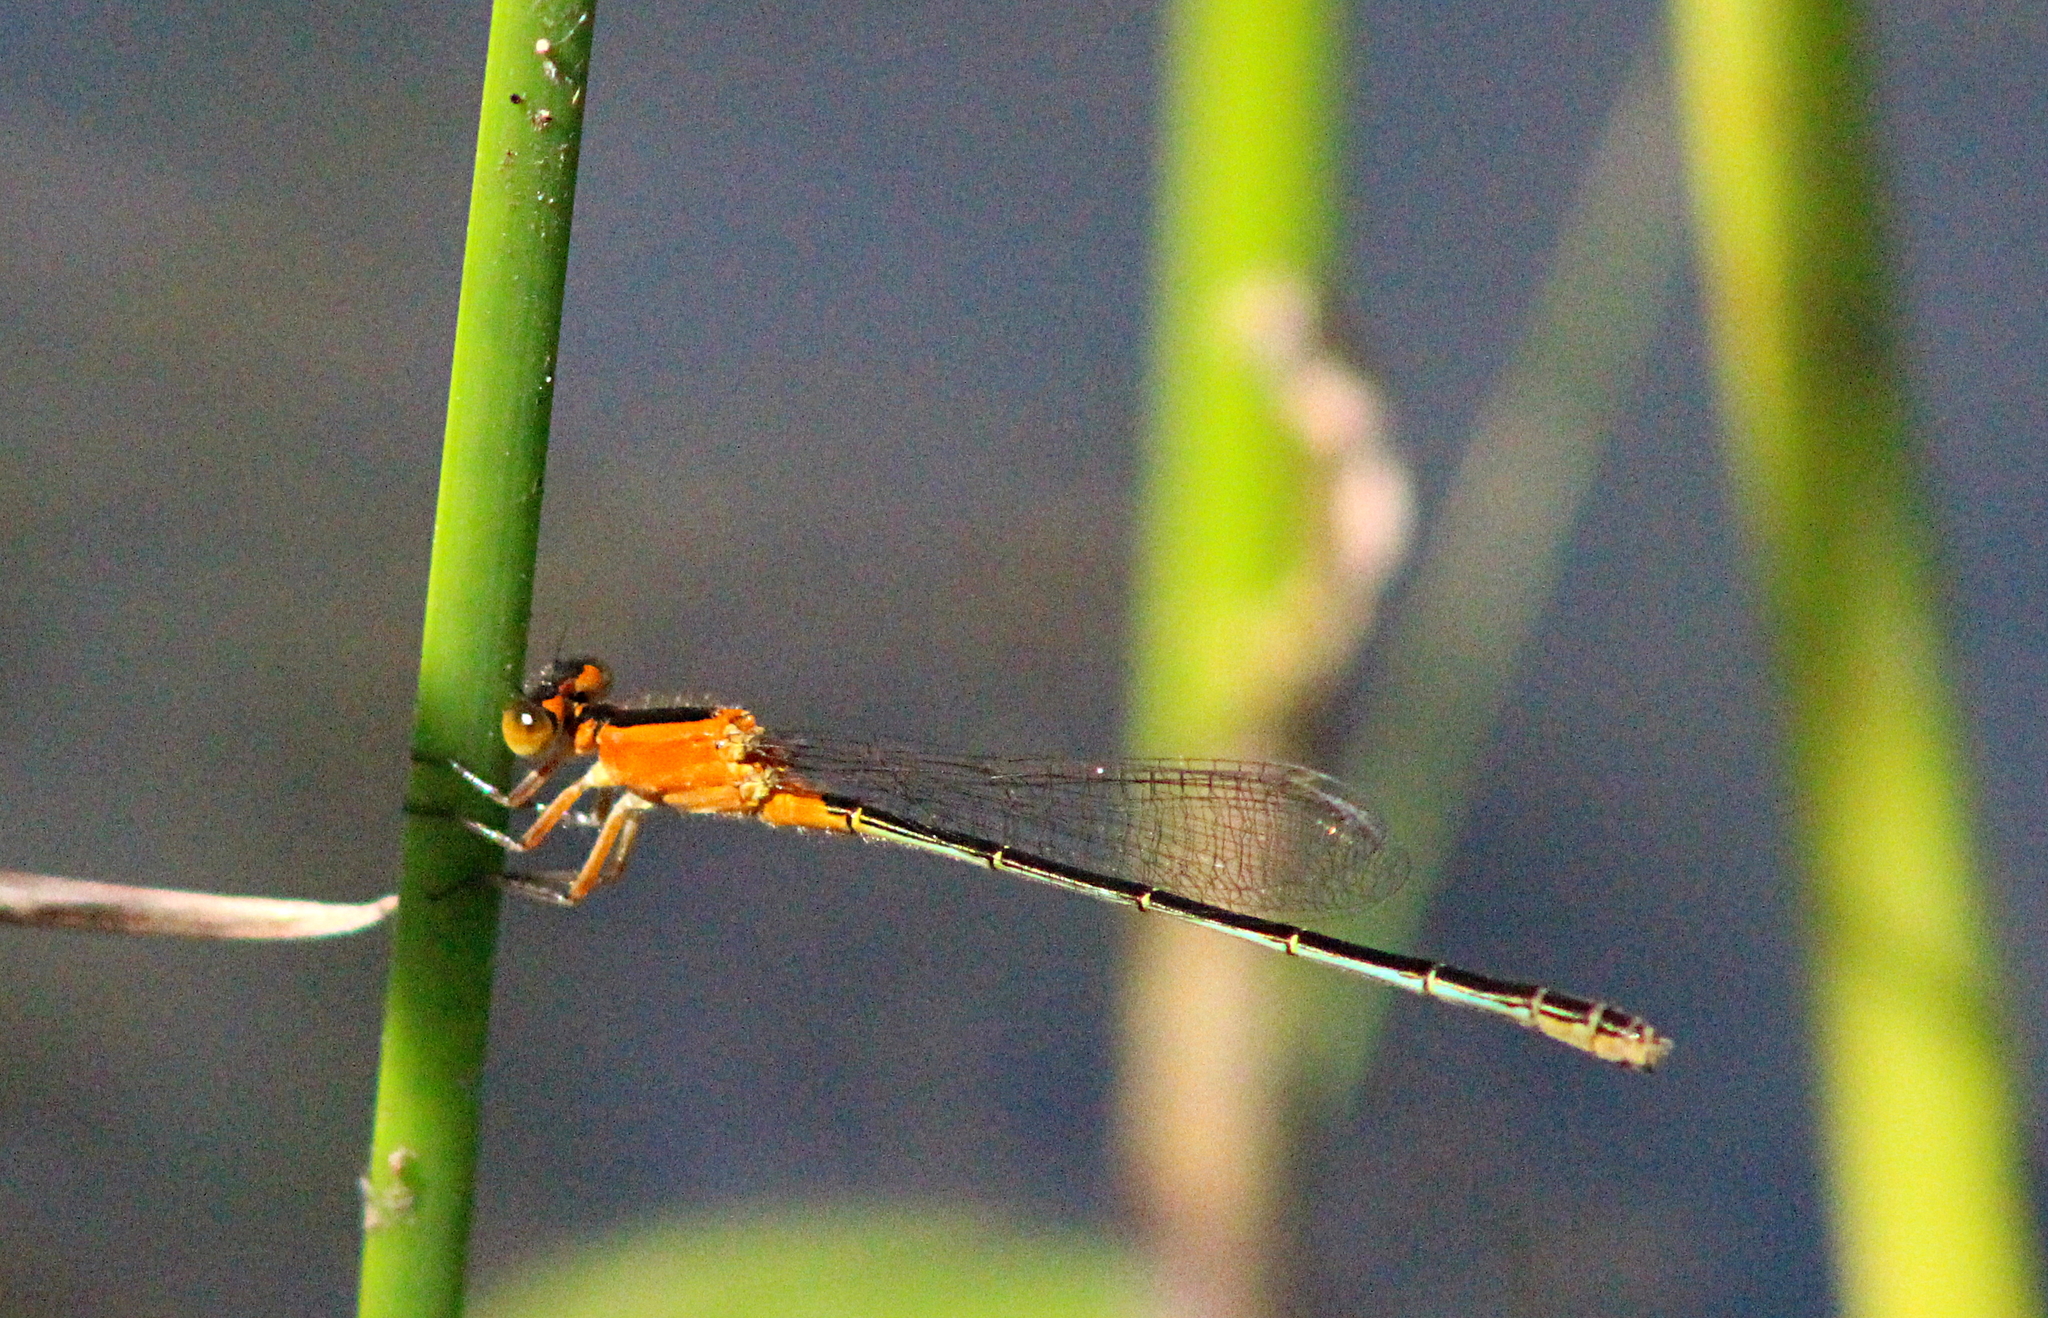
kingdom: Animalia
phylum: Arthropoda
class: Insecta
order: Odonata
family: Coenagrionidae
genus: Ischnura
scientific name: Ischnura ramburii
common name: Rambur's forktail
